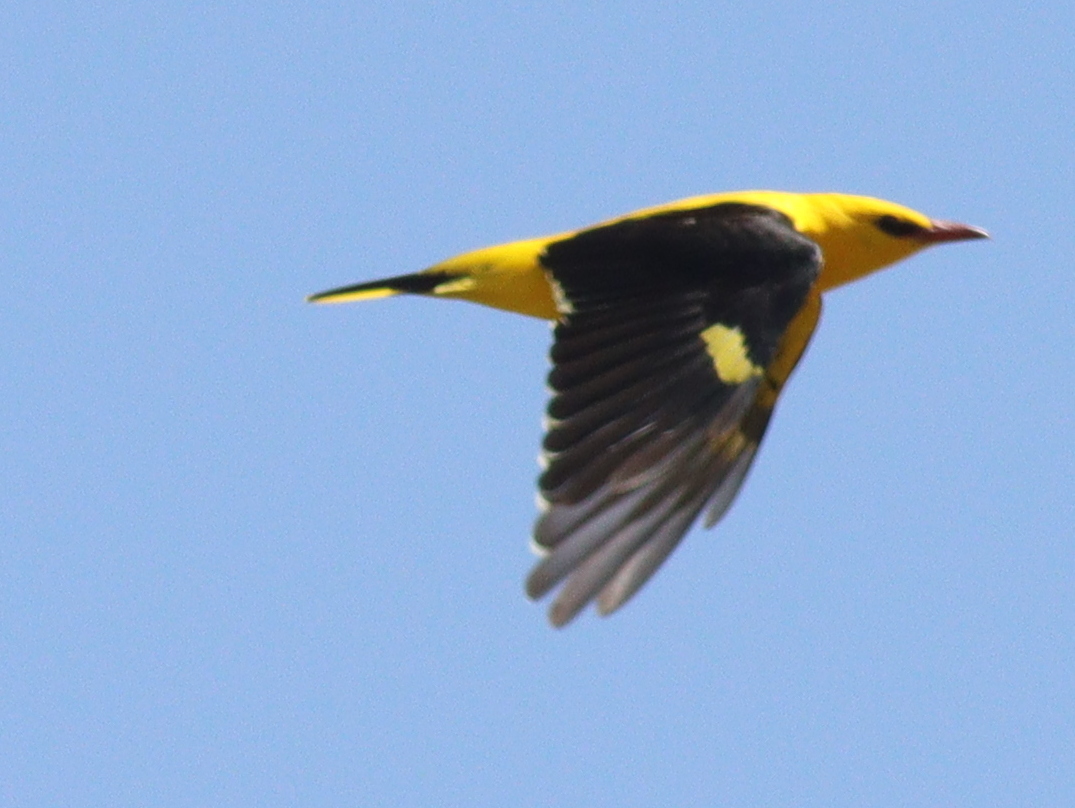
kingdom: Animalia
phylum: Chordata
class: Aves
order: Passeriformes
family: Oriolidae
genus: Oriolus
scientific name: Oriolus oriolus
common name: Eurasian golden oriole
